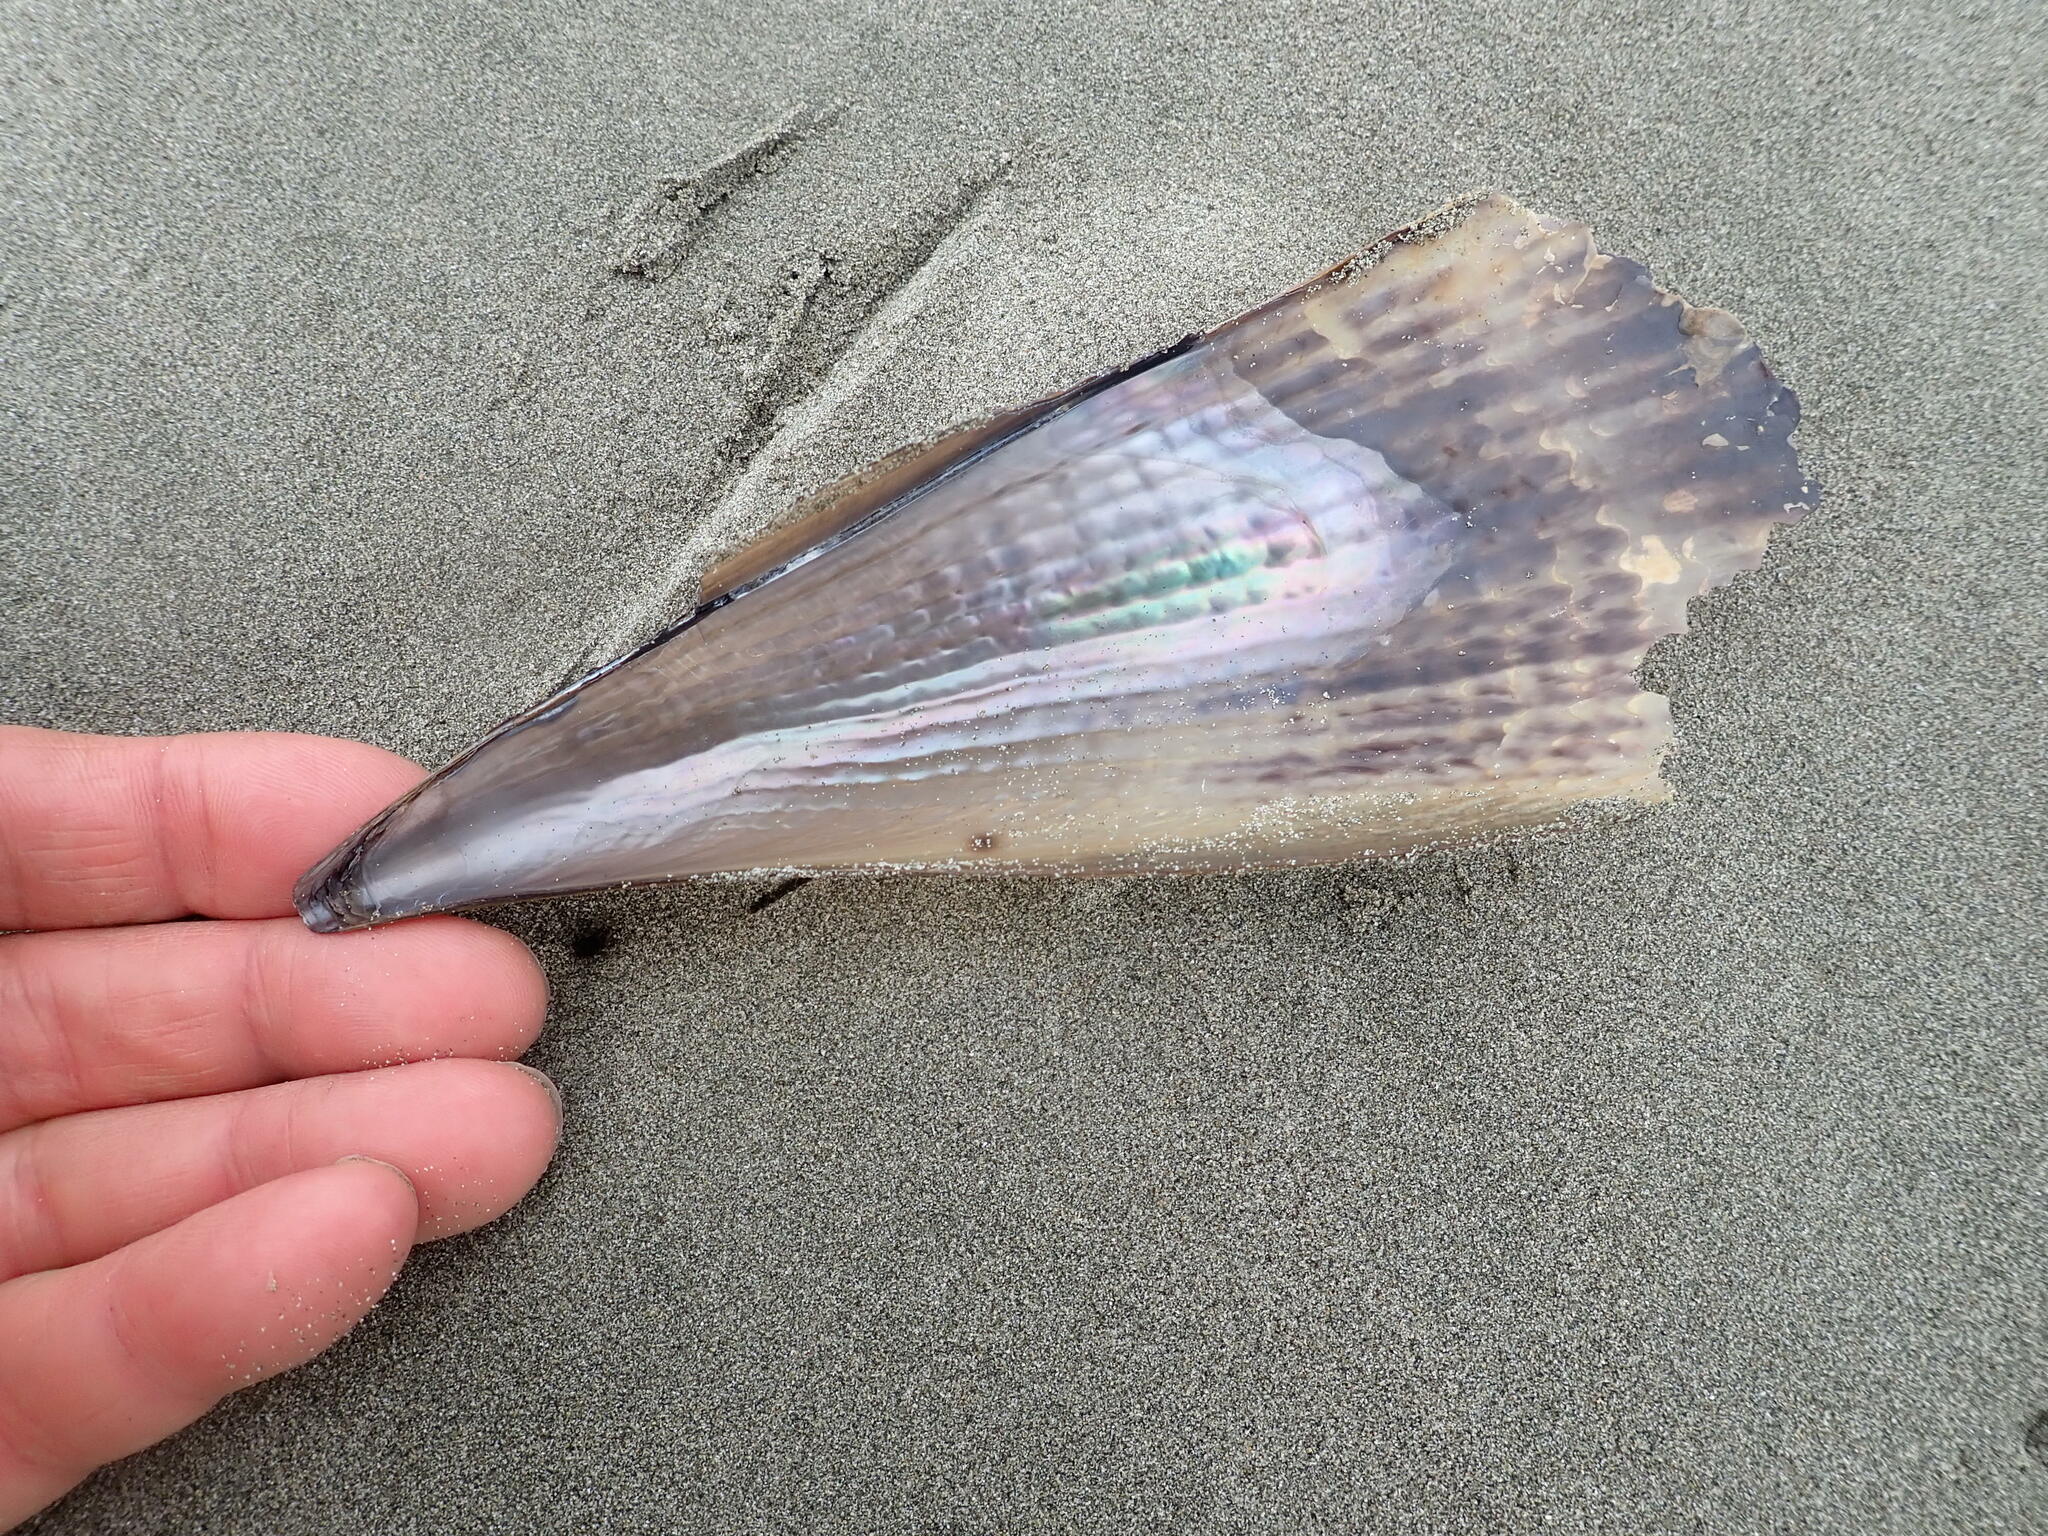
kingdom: Animalia
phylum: Mollusca
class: Bivalvia
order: Ostreida
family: Pinnidae
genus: Atrina
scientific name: Atrina zelandica
